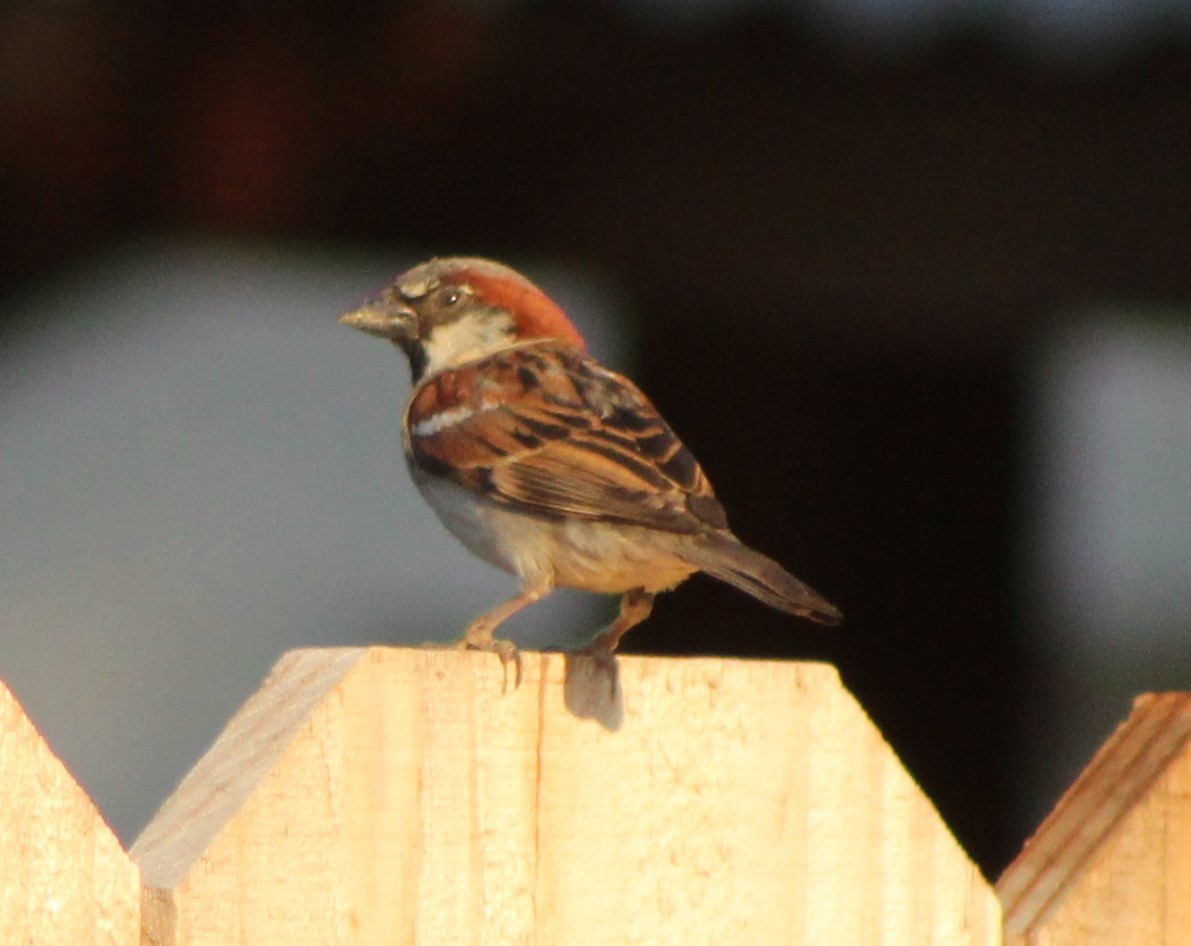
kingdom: Animalia
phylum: Chordata
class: Aves
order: Passeriformes
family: Passeridae
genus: Passer
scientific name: Passer domesticus
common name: House sparrow
